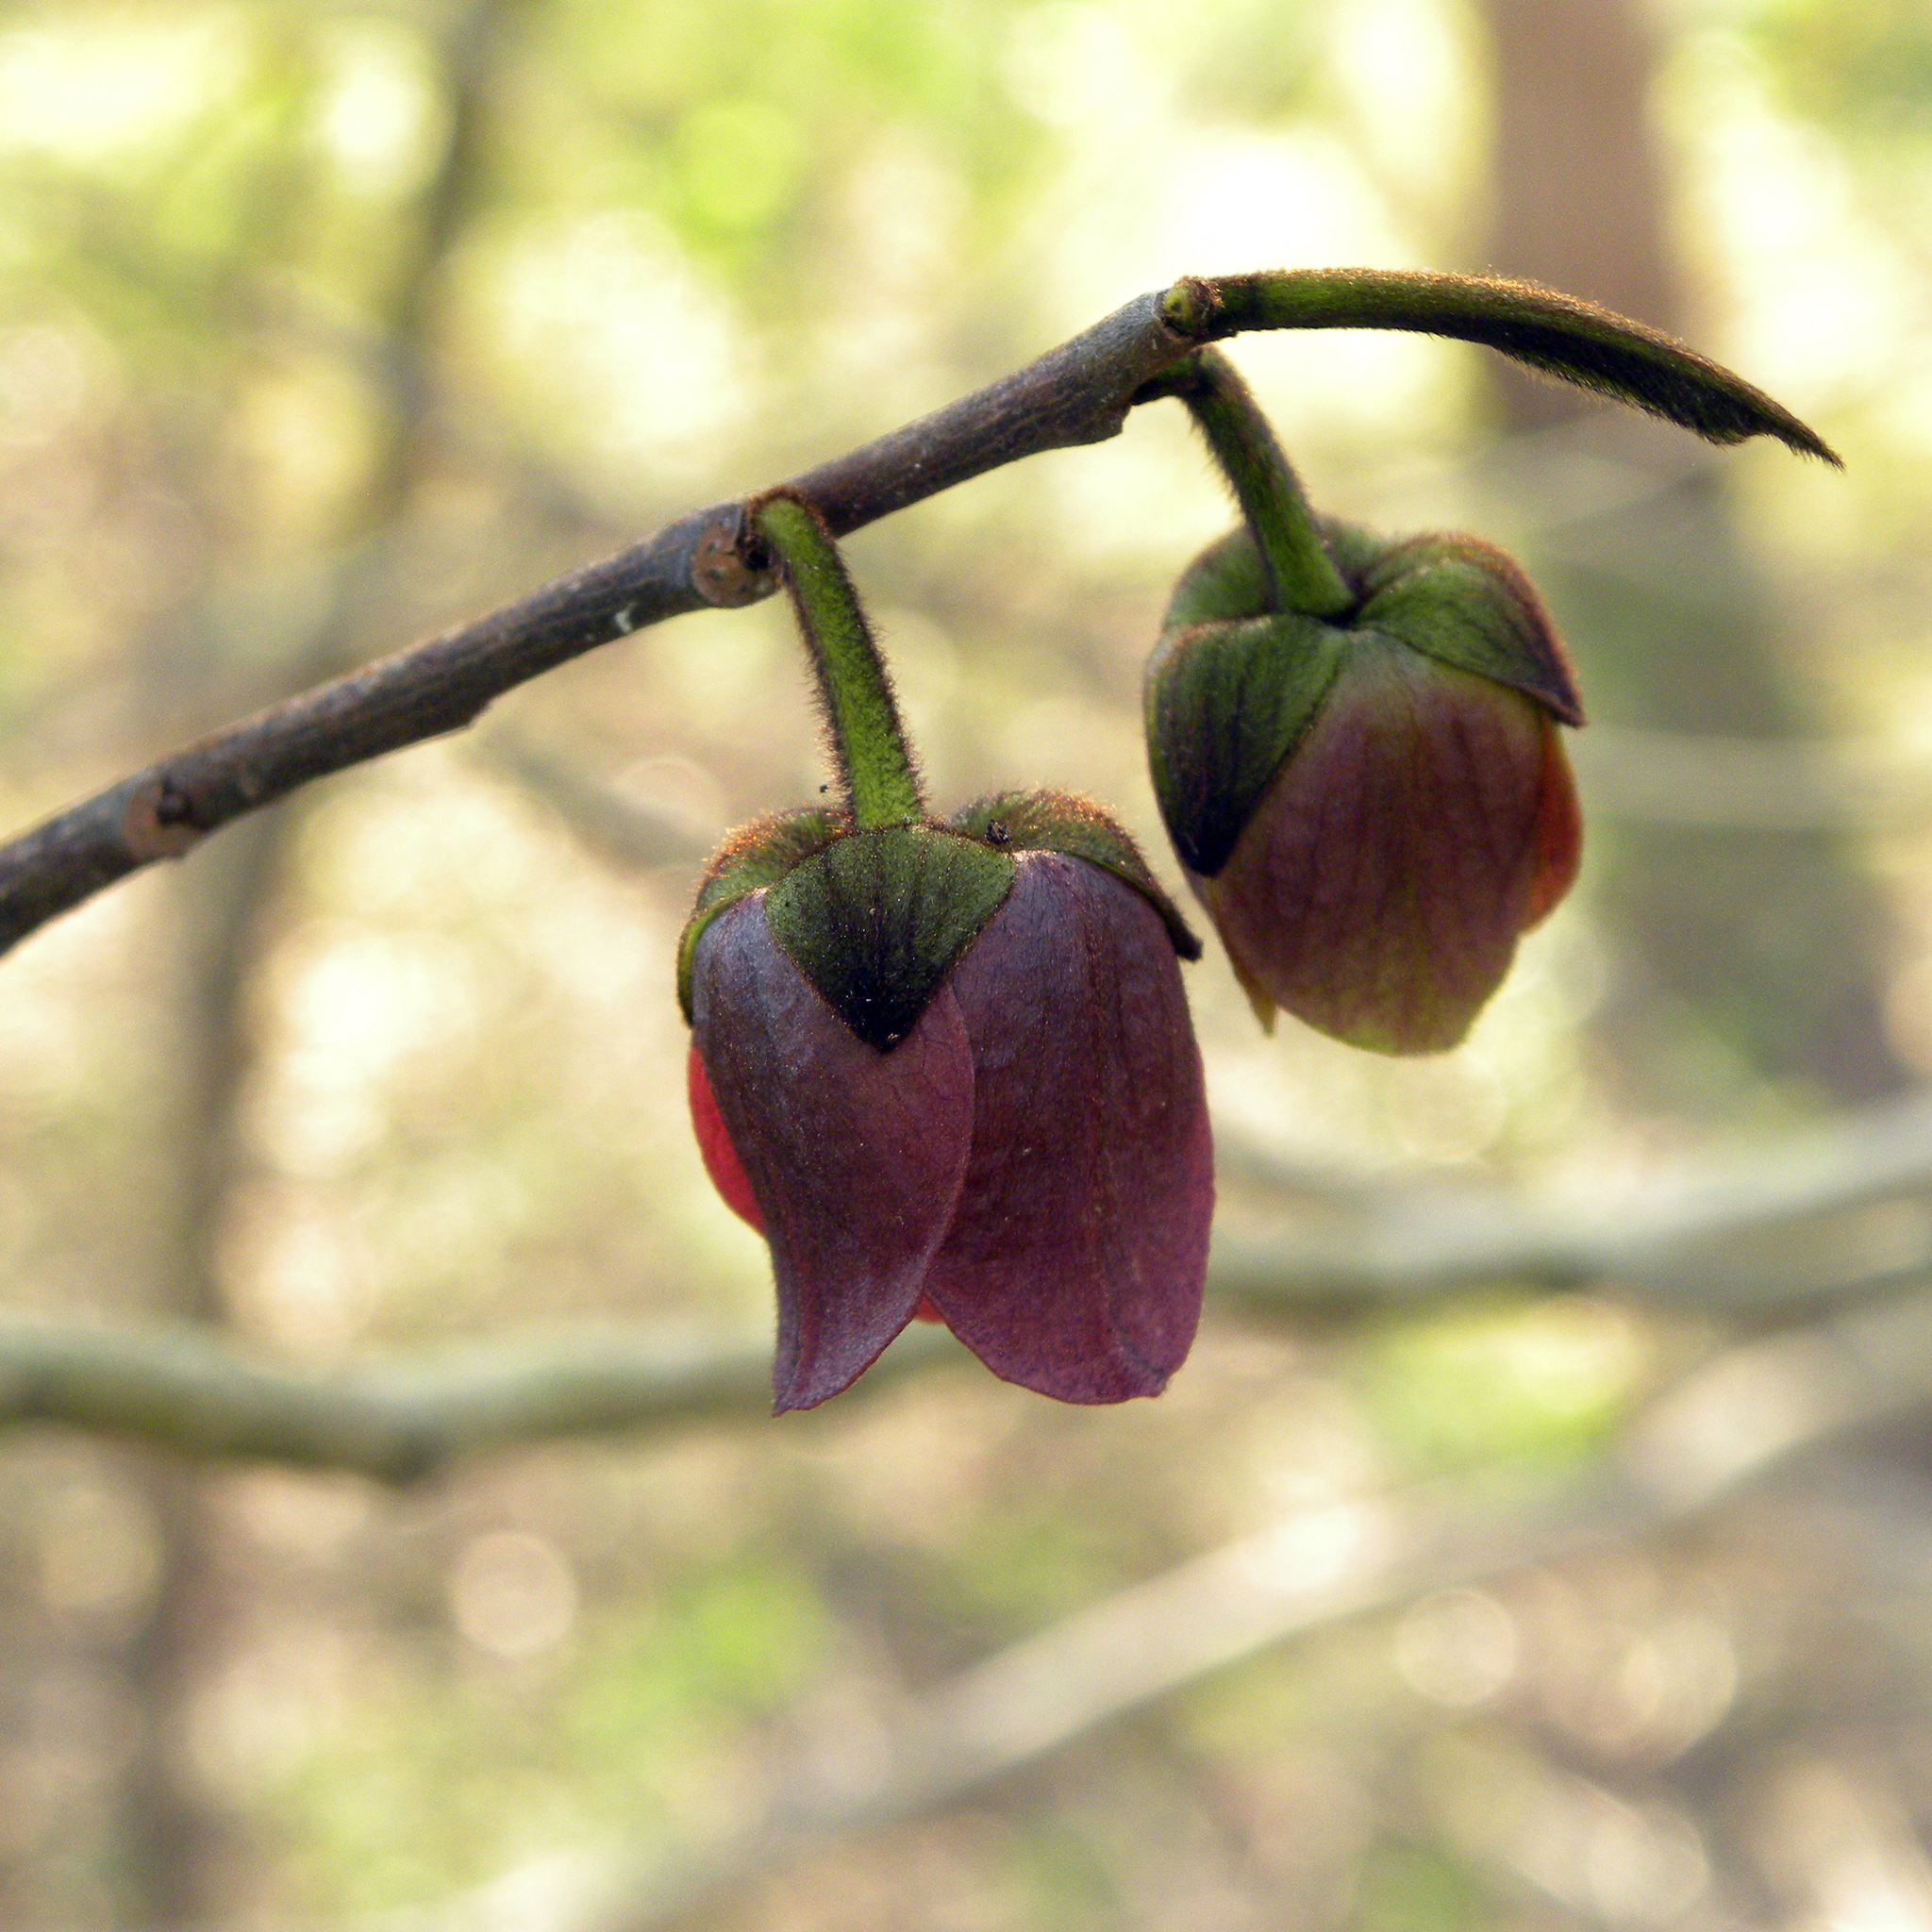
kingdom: Plantae
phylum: Tracheophyta
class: Magnoliopsida
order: Magnoliales
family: Annonaceae
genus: Asimina
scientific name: Asimina triloba
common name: Dog-banana
